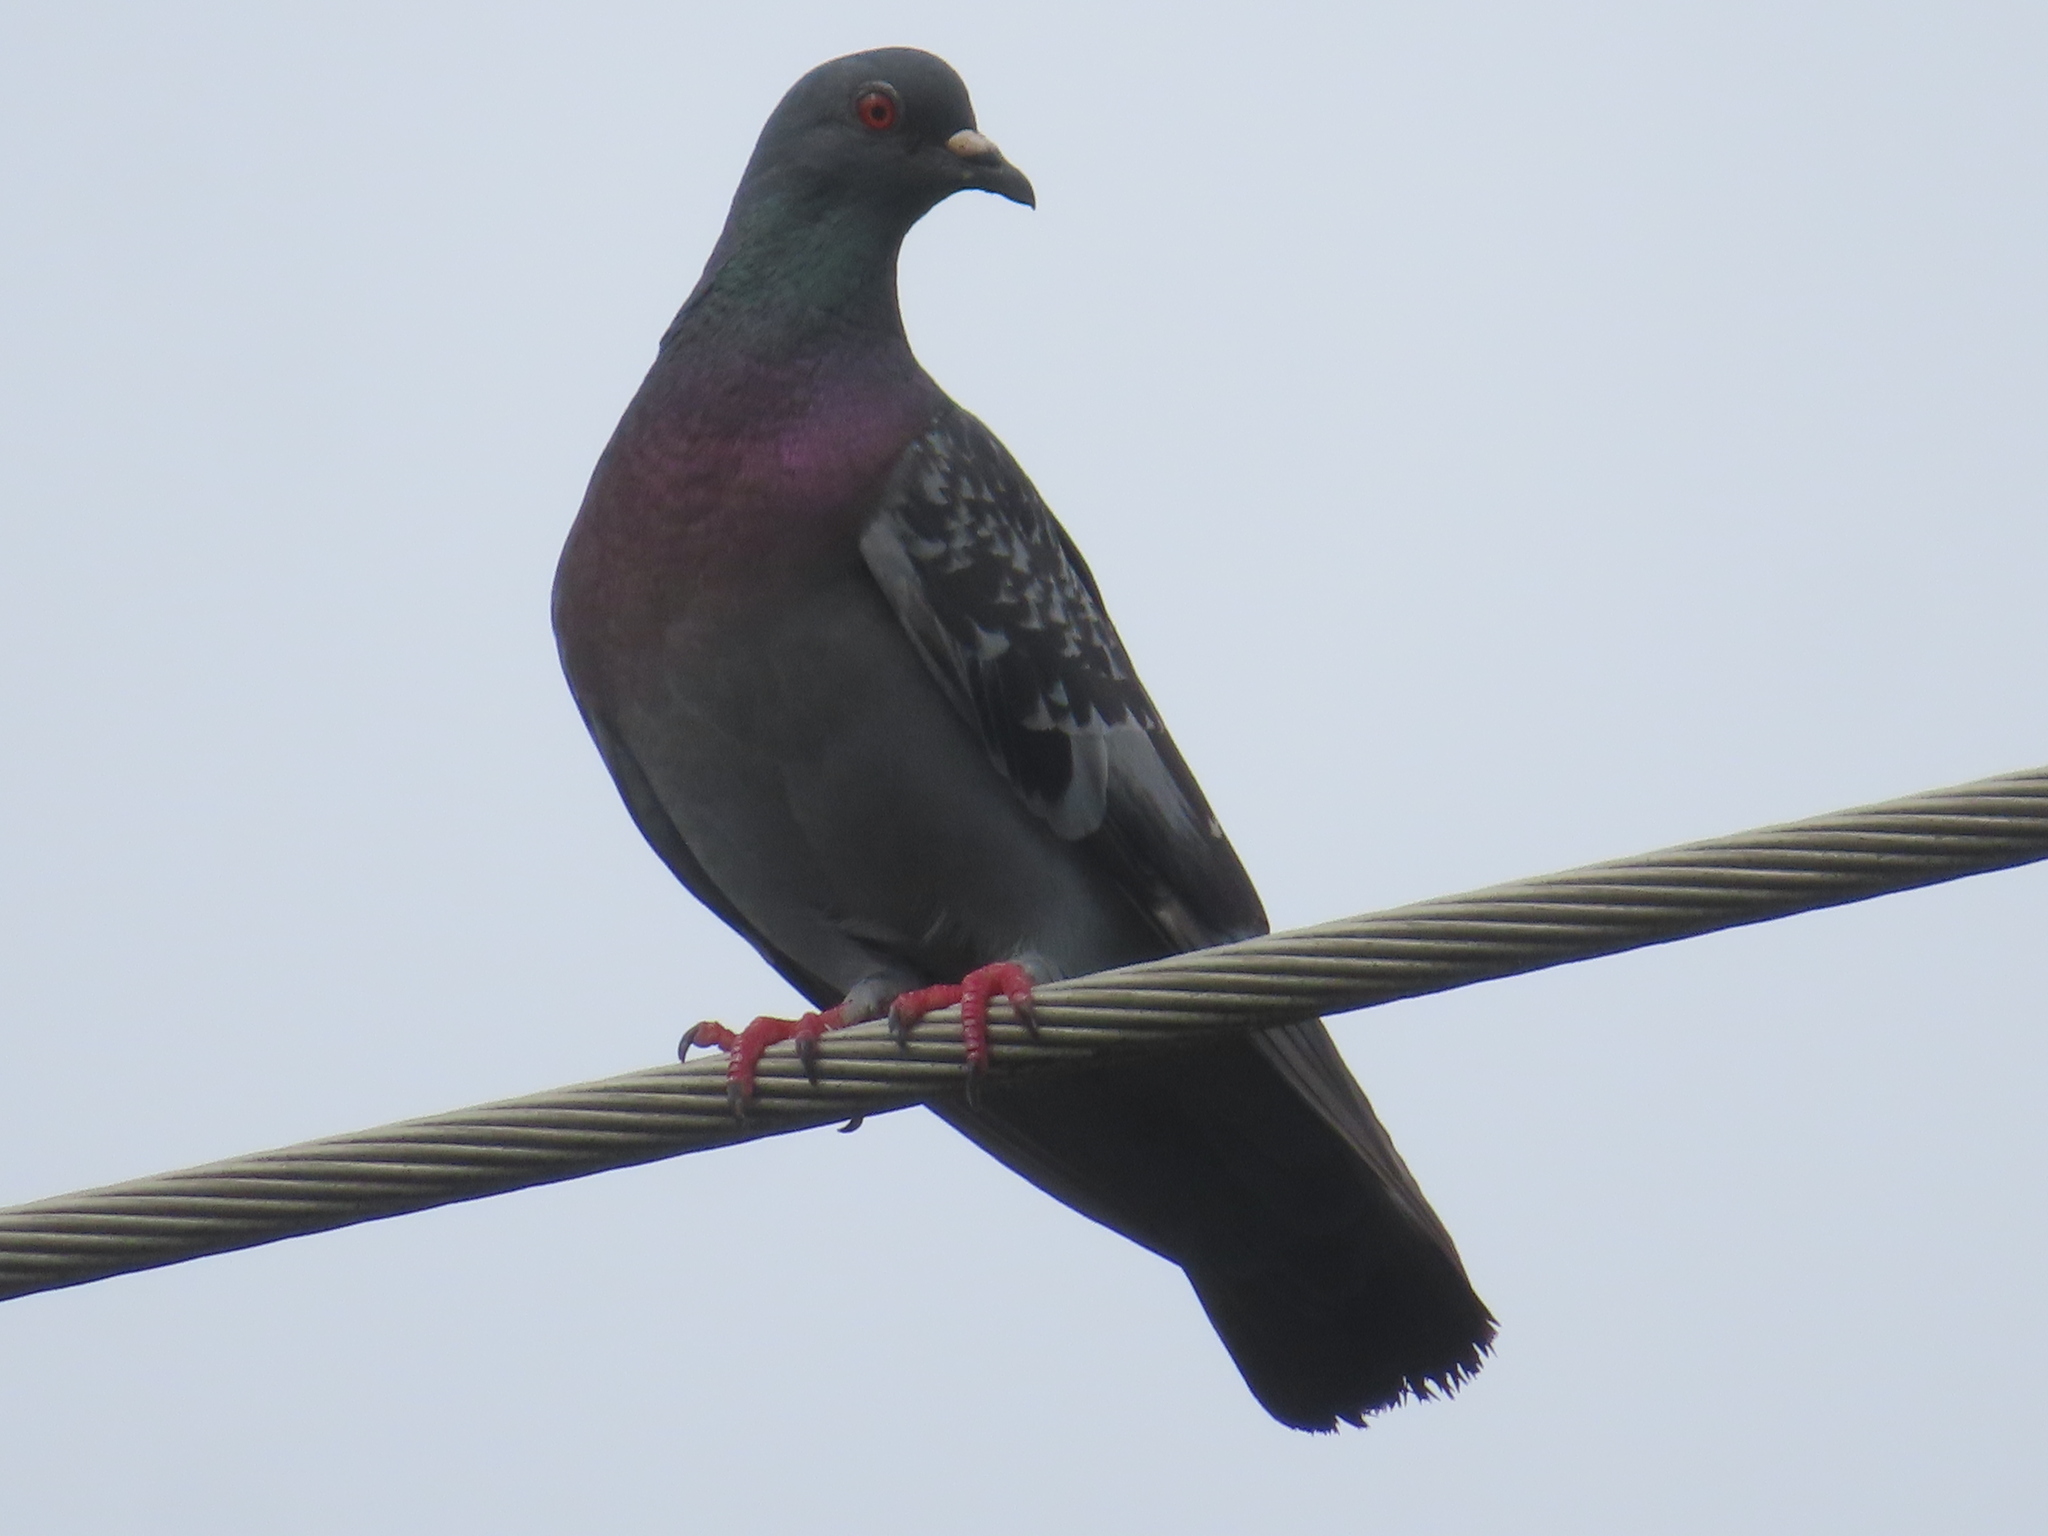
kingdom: Animalia
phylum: Chordata
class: Aves
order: Columbiformes
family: Columbidae
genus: Columba
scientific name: Columba livia
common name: Rock pigeon
